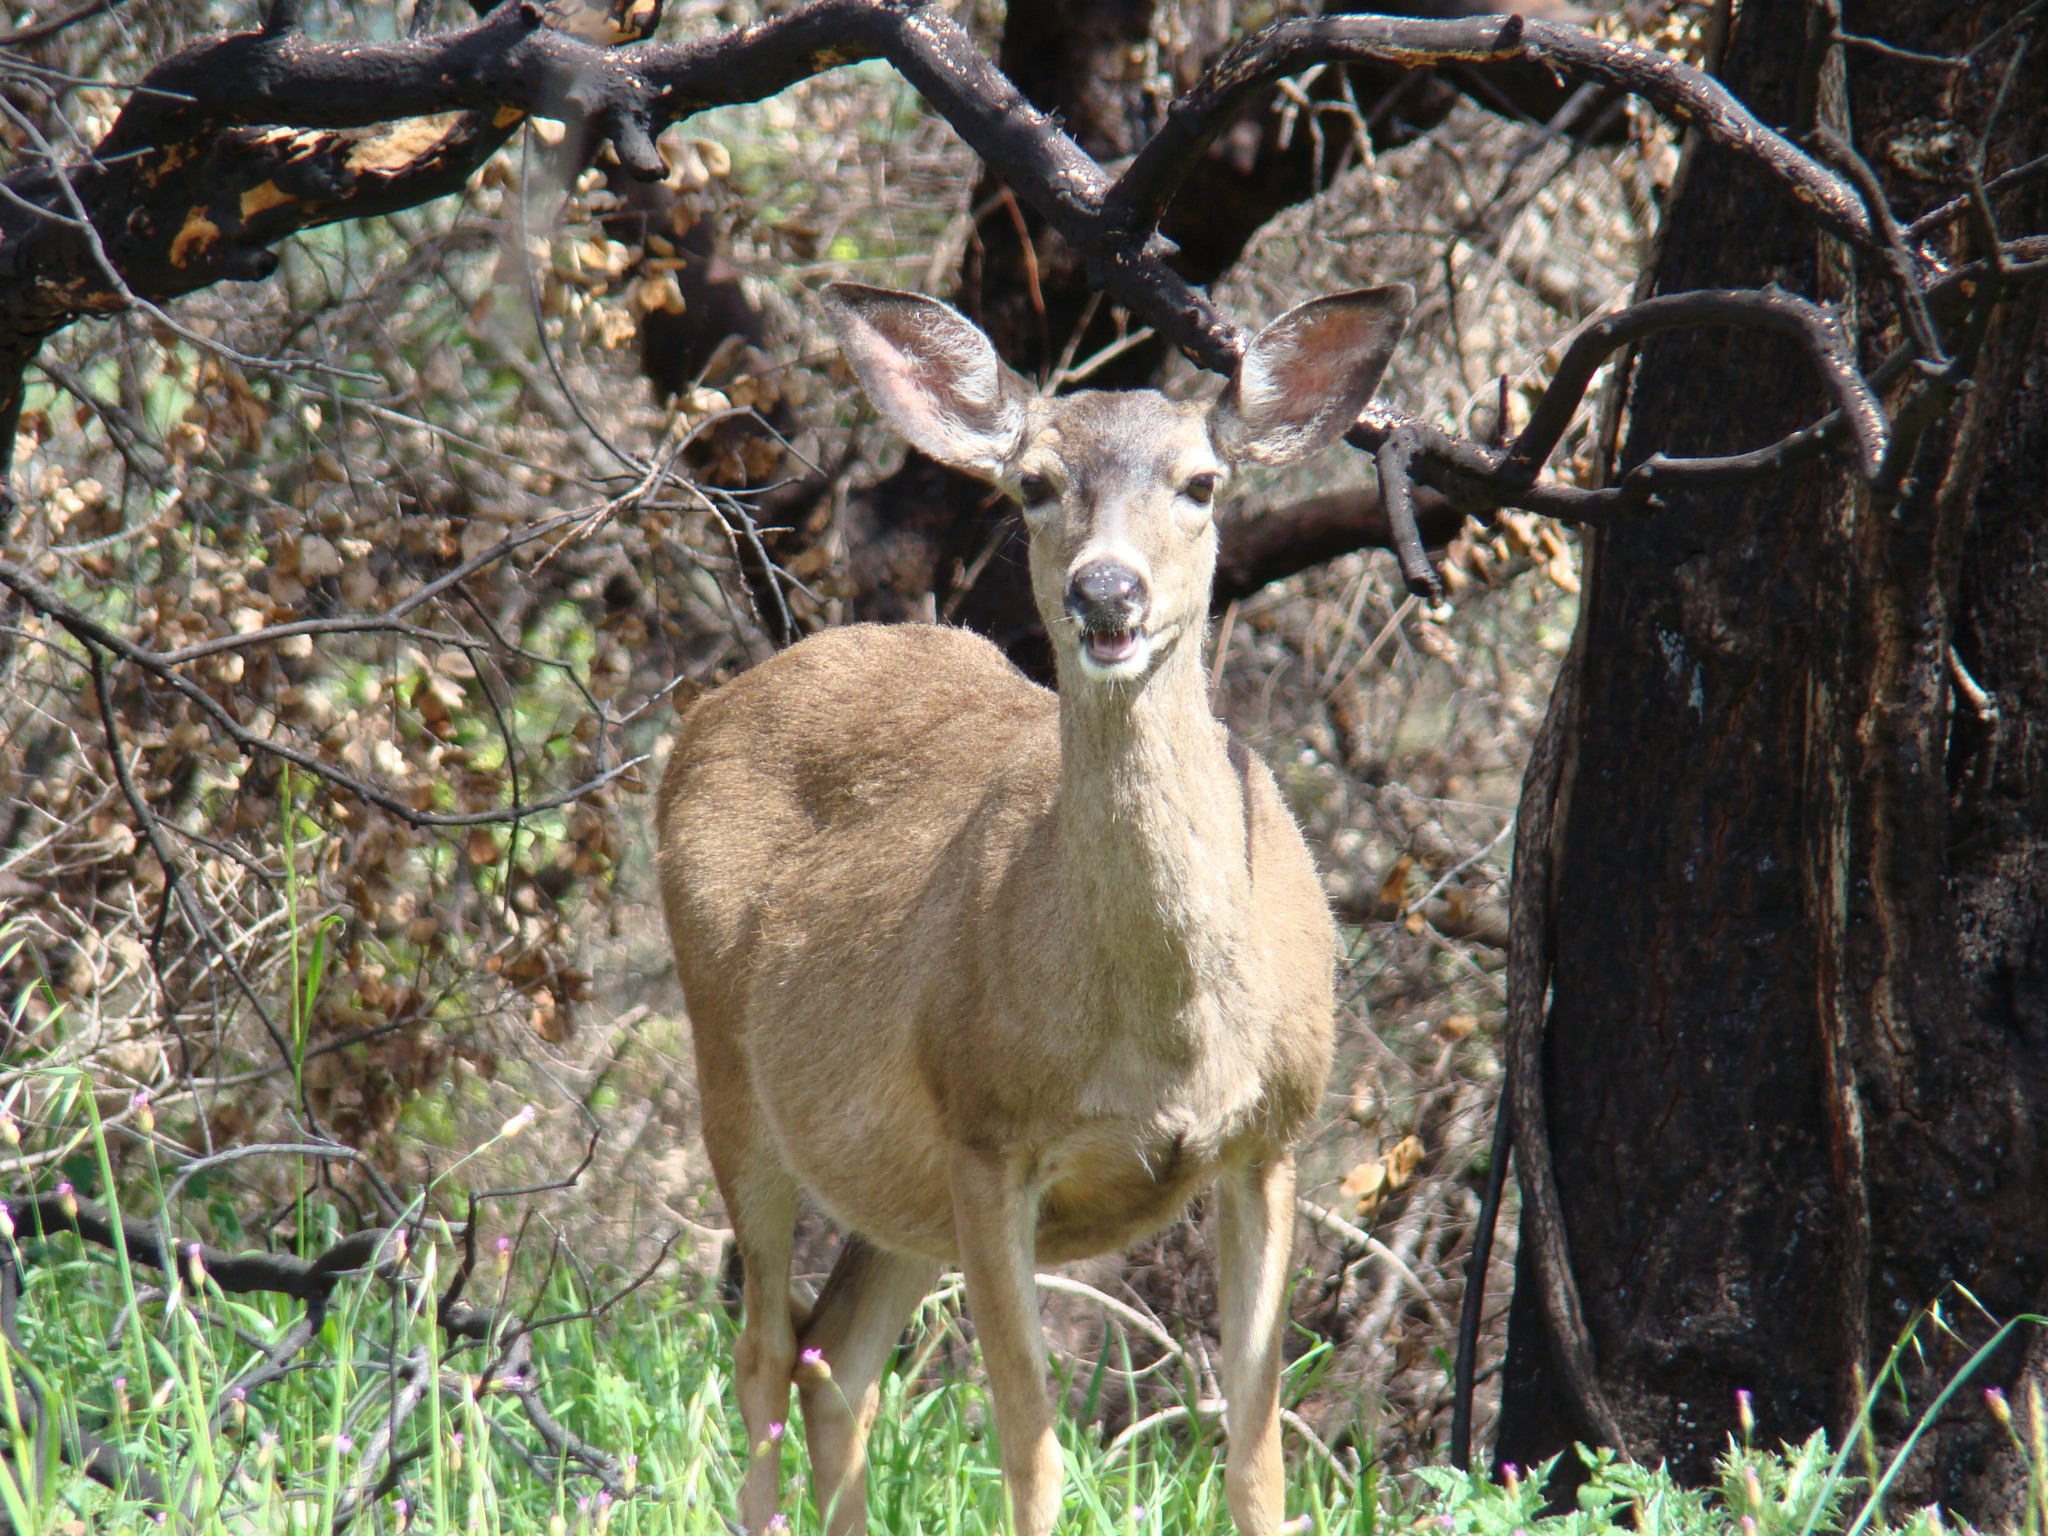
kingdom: Animalia
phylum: Chordata
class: Mammalia
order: Artiodactyla
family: Cervidae
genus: Odocoileus
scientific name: Odocoileus hemionus
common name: Mule deer
